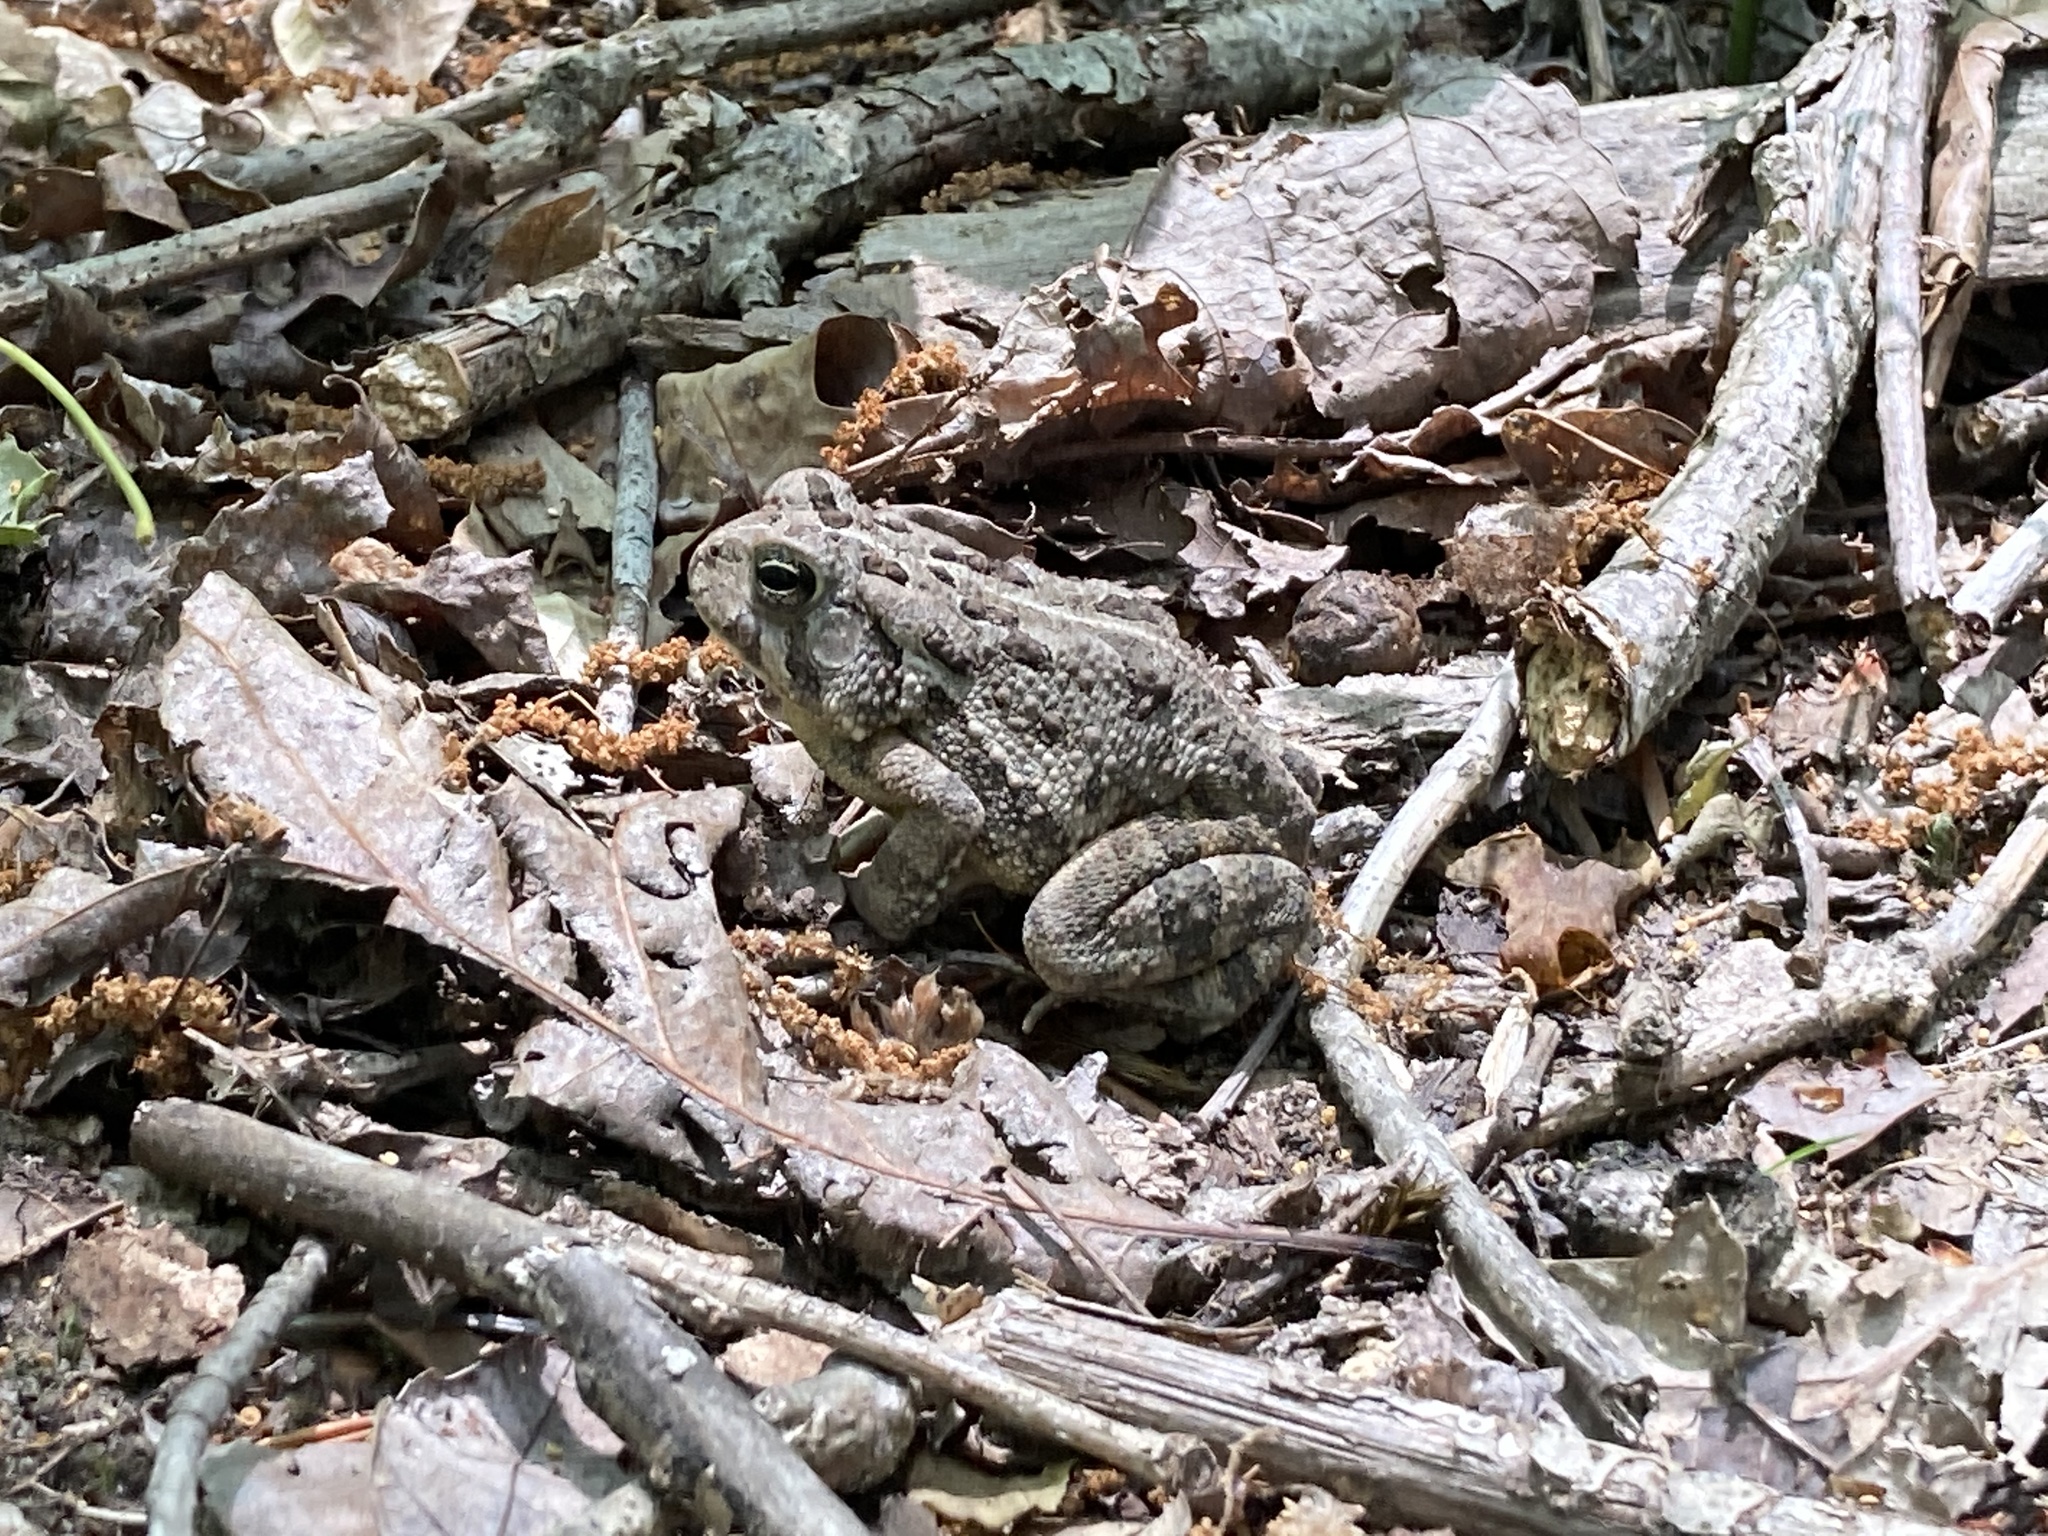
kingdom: Animalia
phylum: Chordata
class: Amphibia
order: Anura
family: Bufonidae
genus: Anaxyrus
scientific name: Anaxyrus fowleri
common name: Fowler's toad
